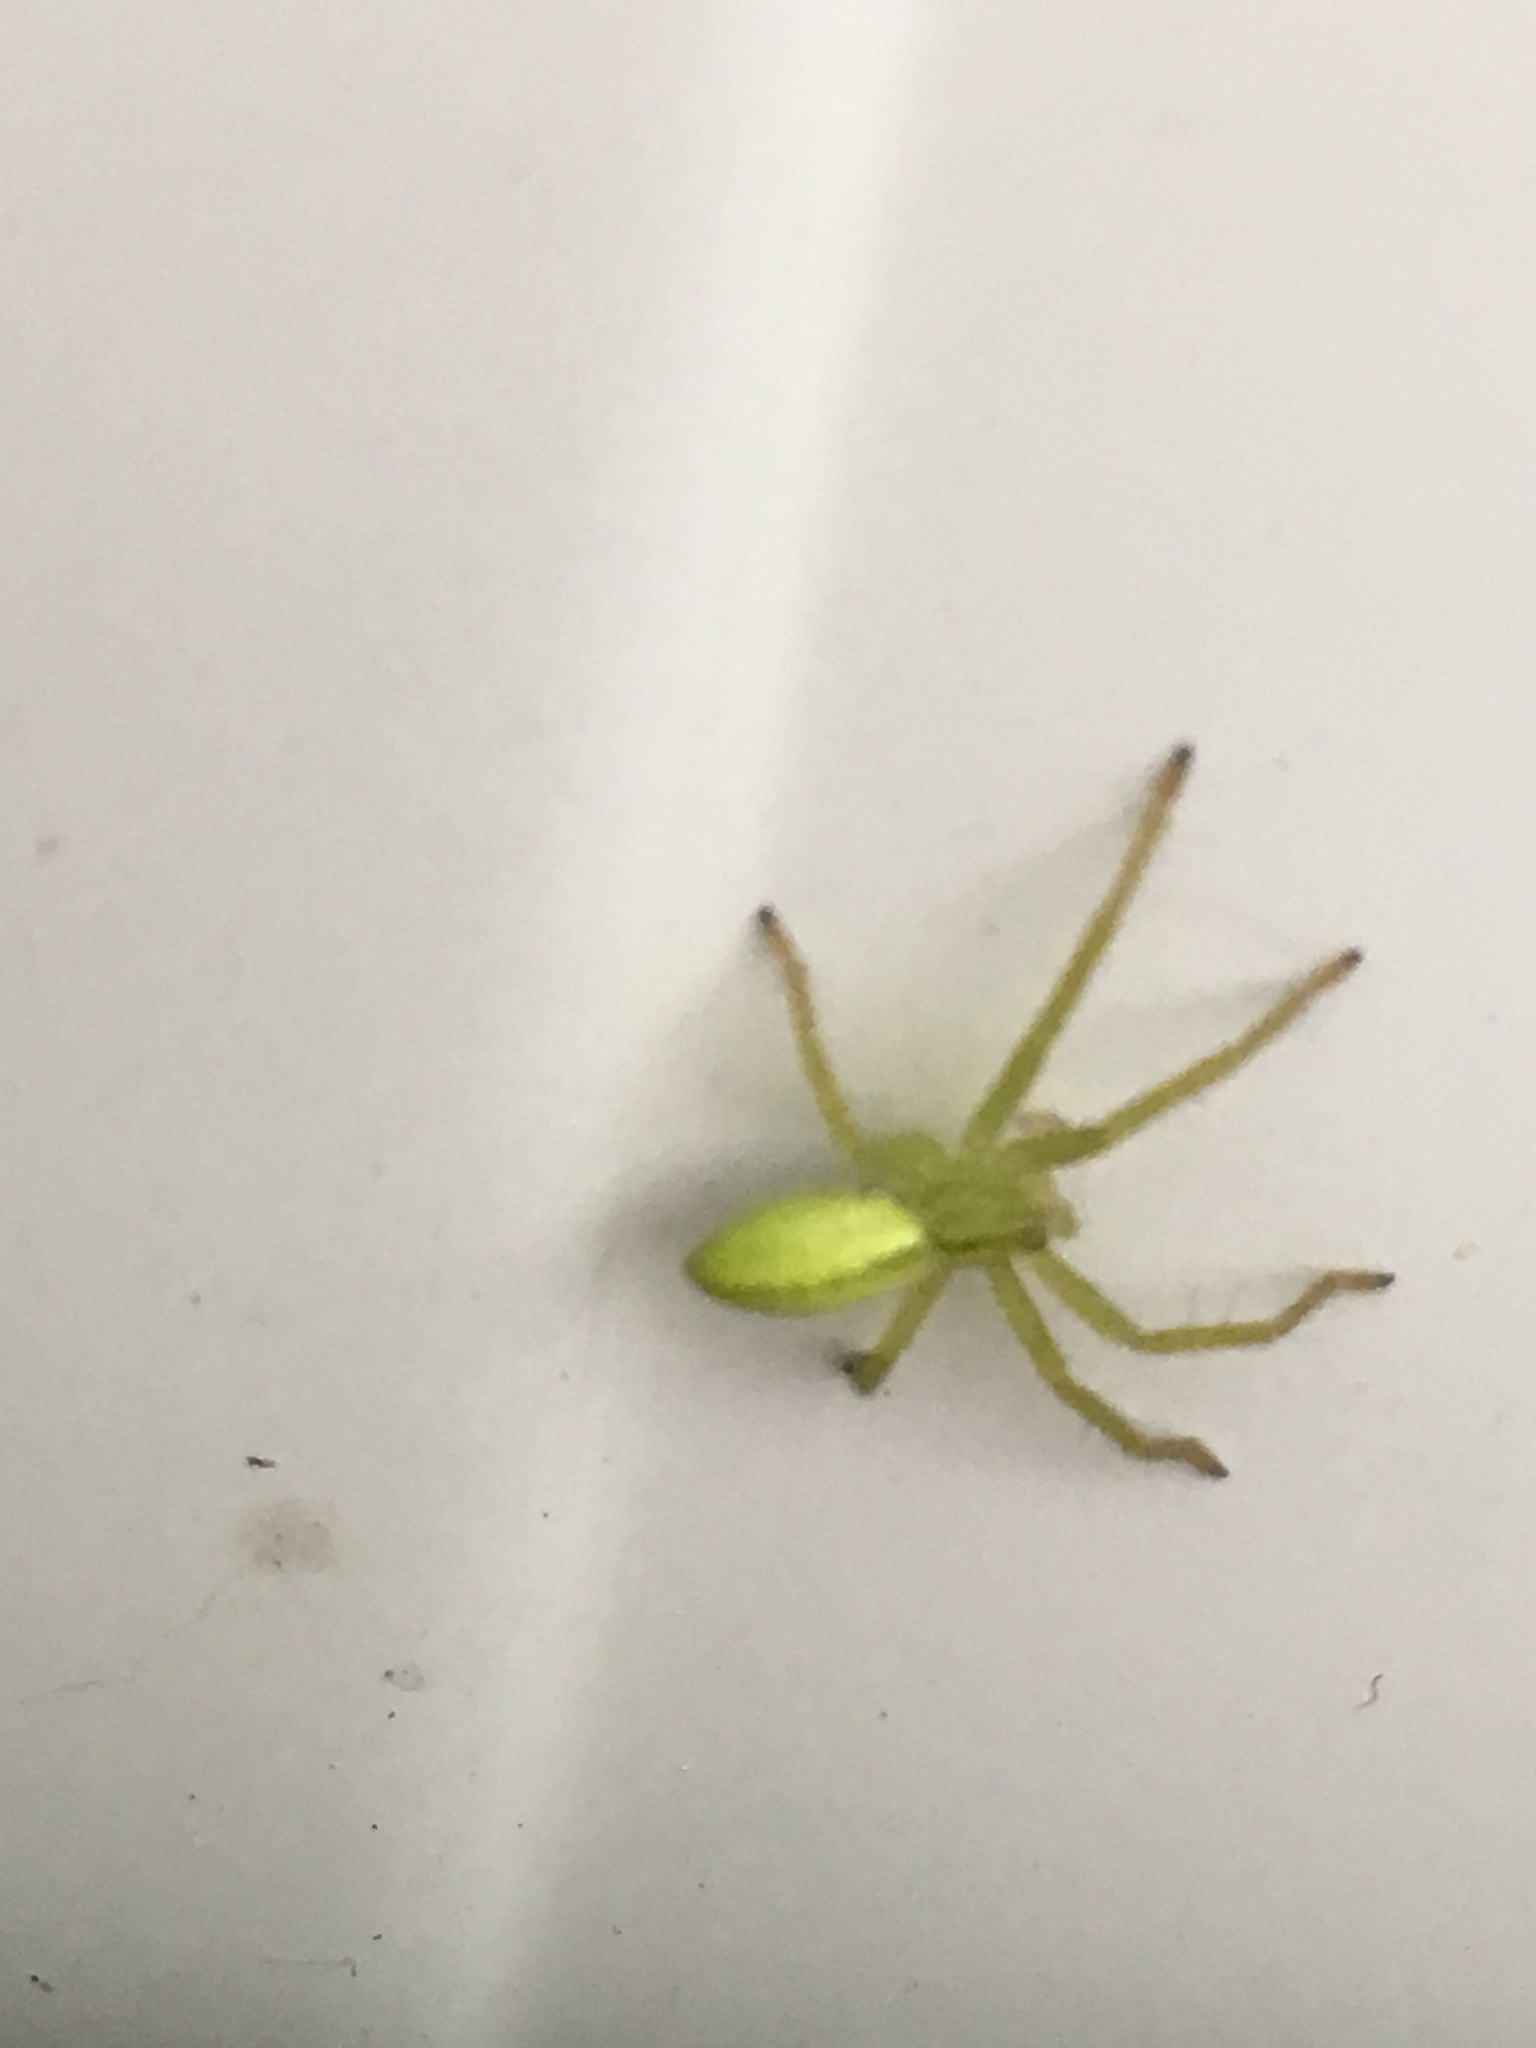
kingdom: Animalia
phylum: Arthropoda
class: Arachnida
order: Araneae
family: Sparassidae
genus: Micrommata
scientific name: Micrommata virescens
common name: Green spider
